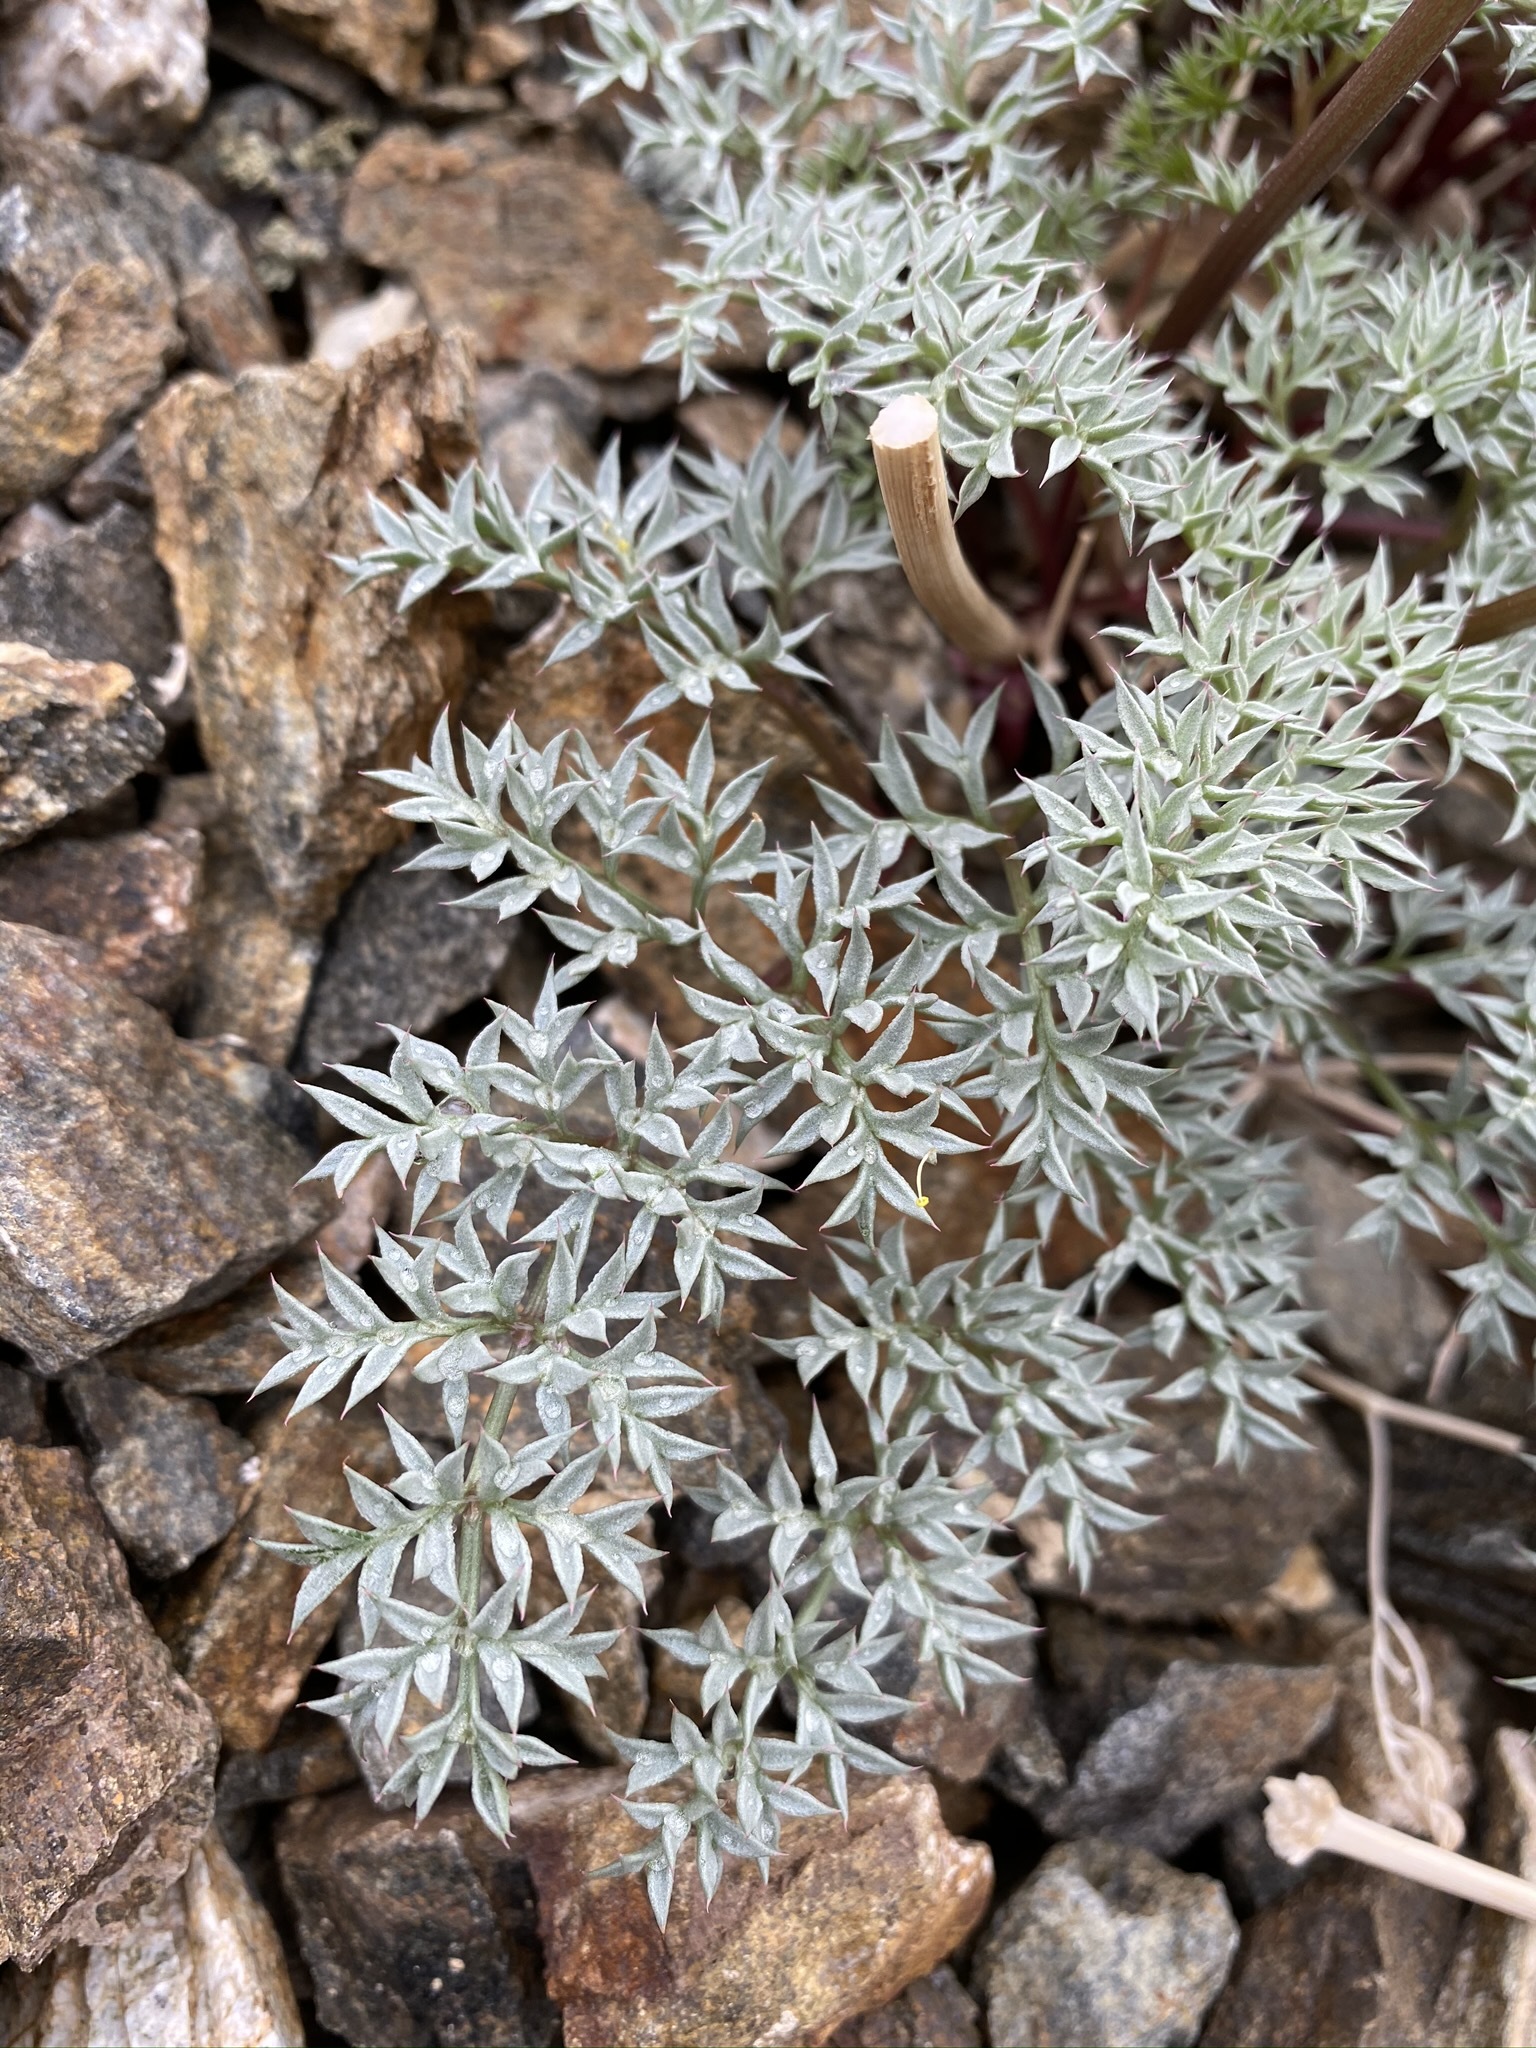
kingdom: Plantae
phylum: Tracheophyta
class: Magnoliopsida
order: Apiales
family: Apiaceae
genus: Aulospermum
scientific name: Aulospermum panamintense
